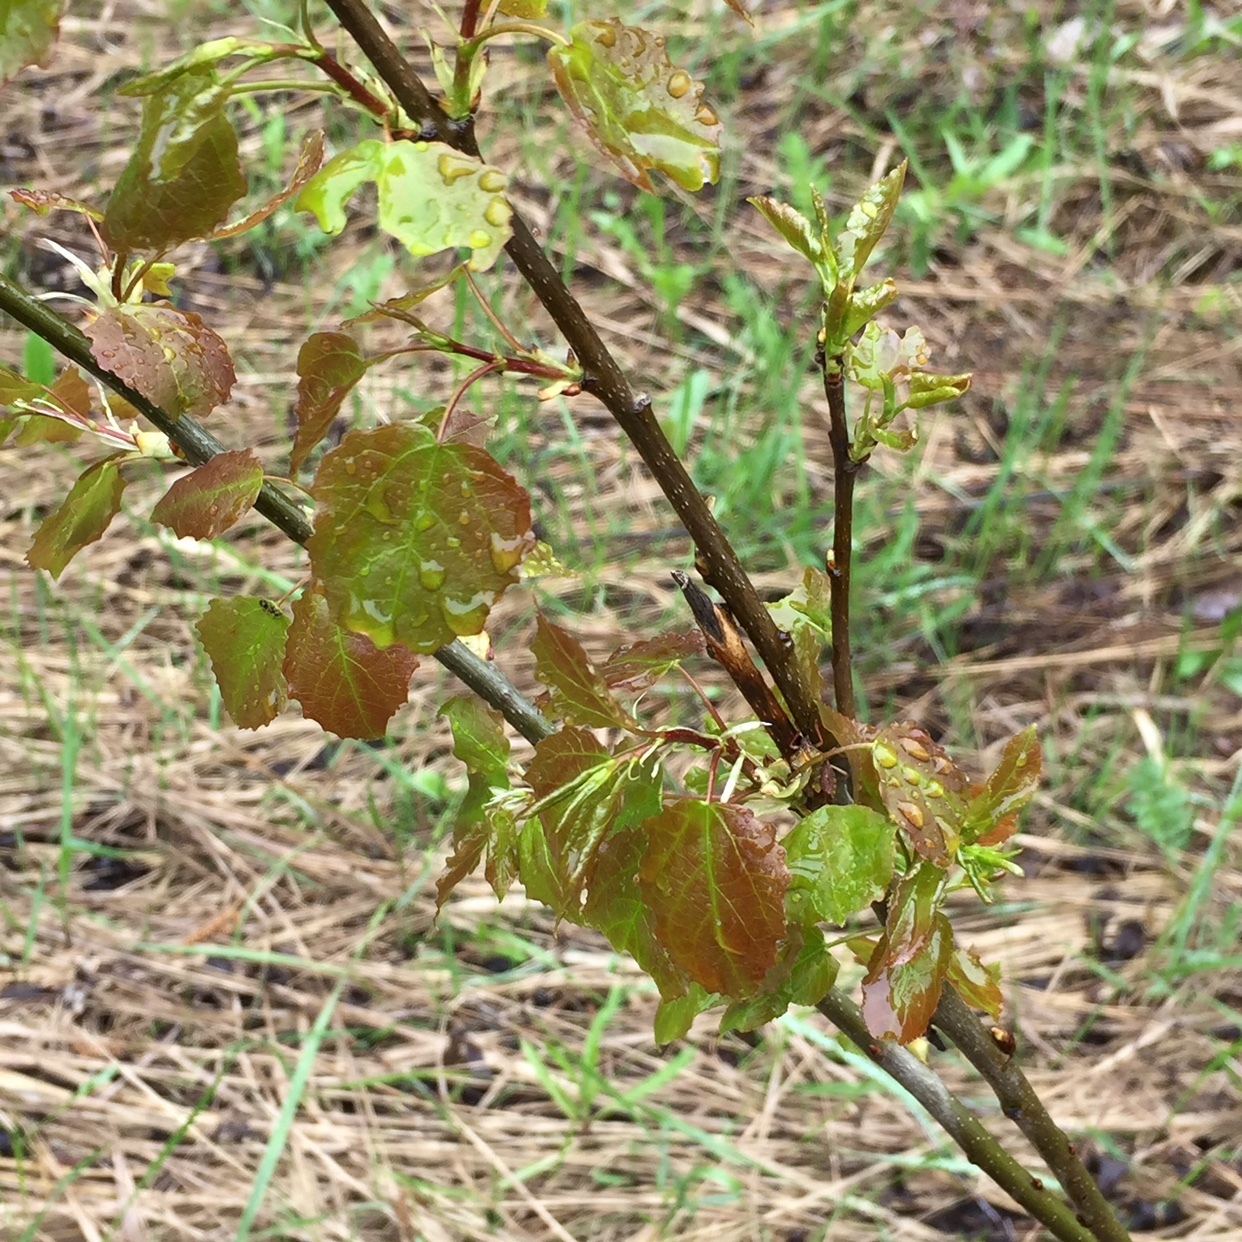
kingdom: Plantae
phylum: Tracheophyta
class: Magnoliopsida
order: Malpighiales
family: Salicaceae
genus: Populus
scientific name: Populus tremula
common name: European aspen
